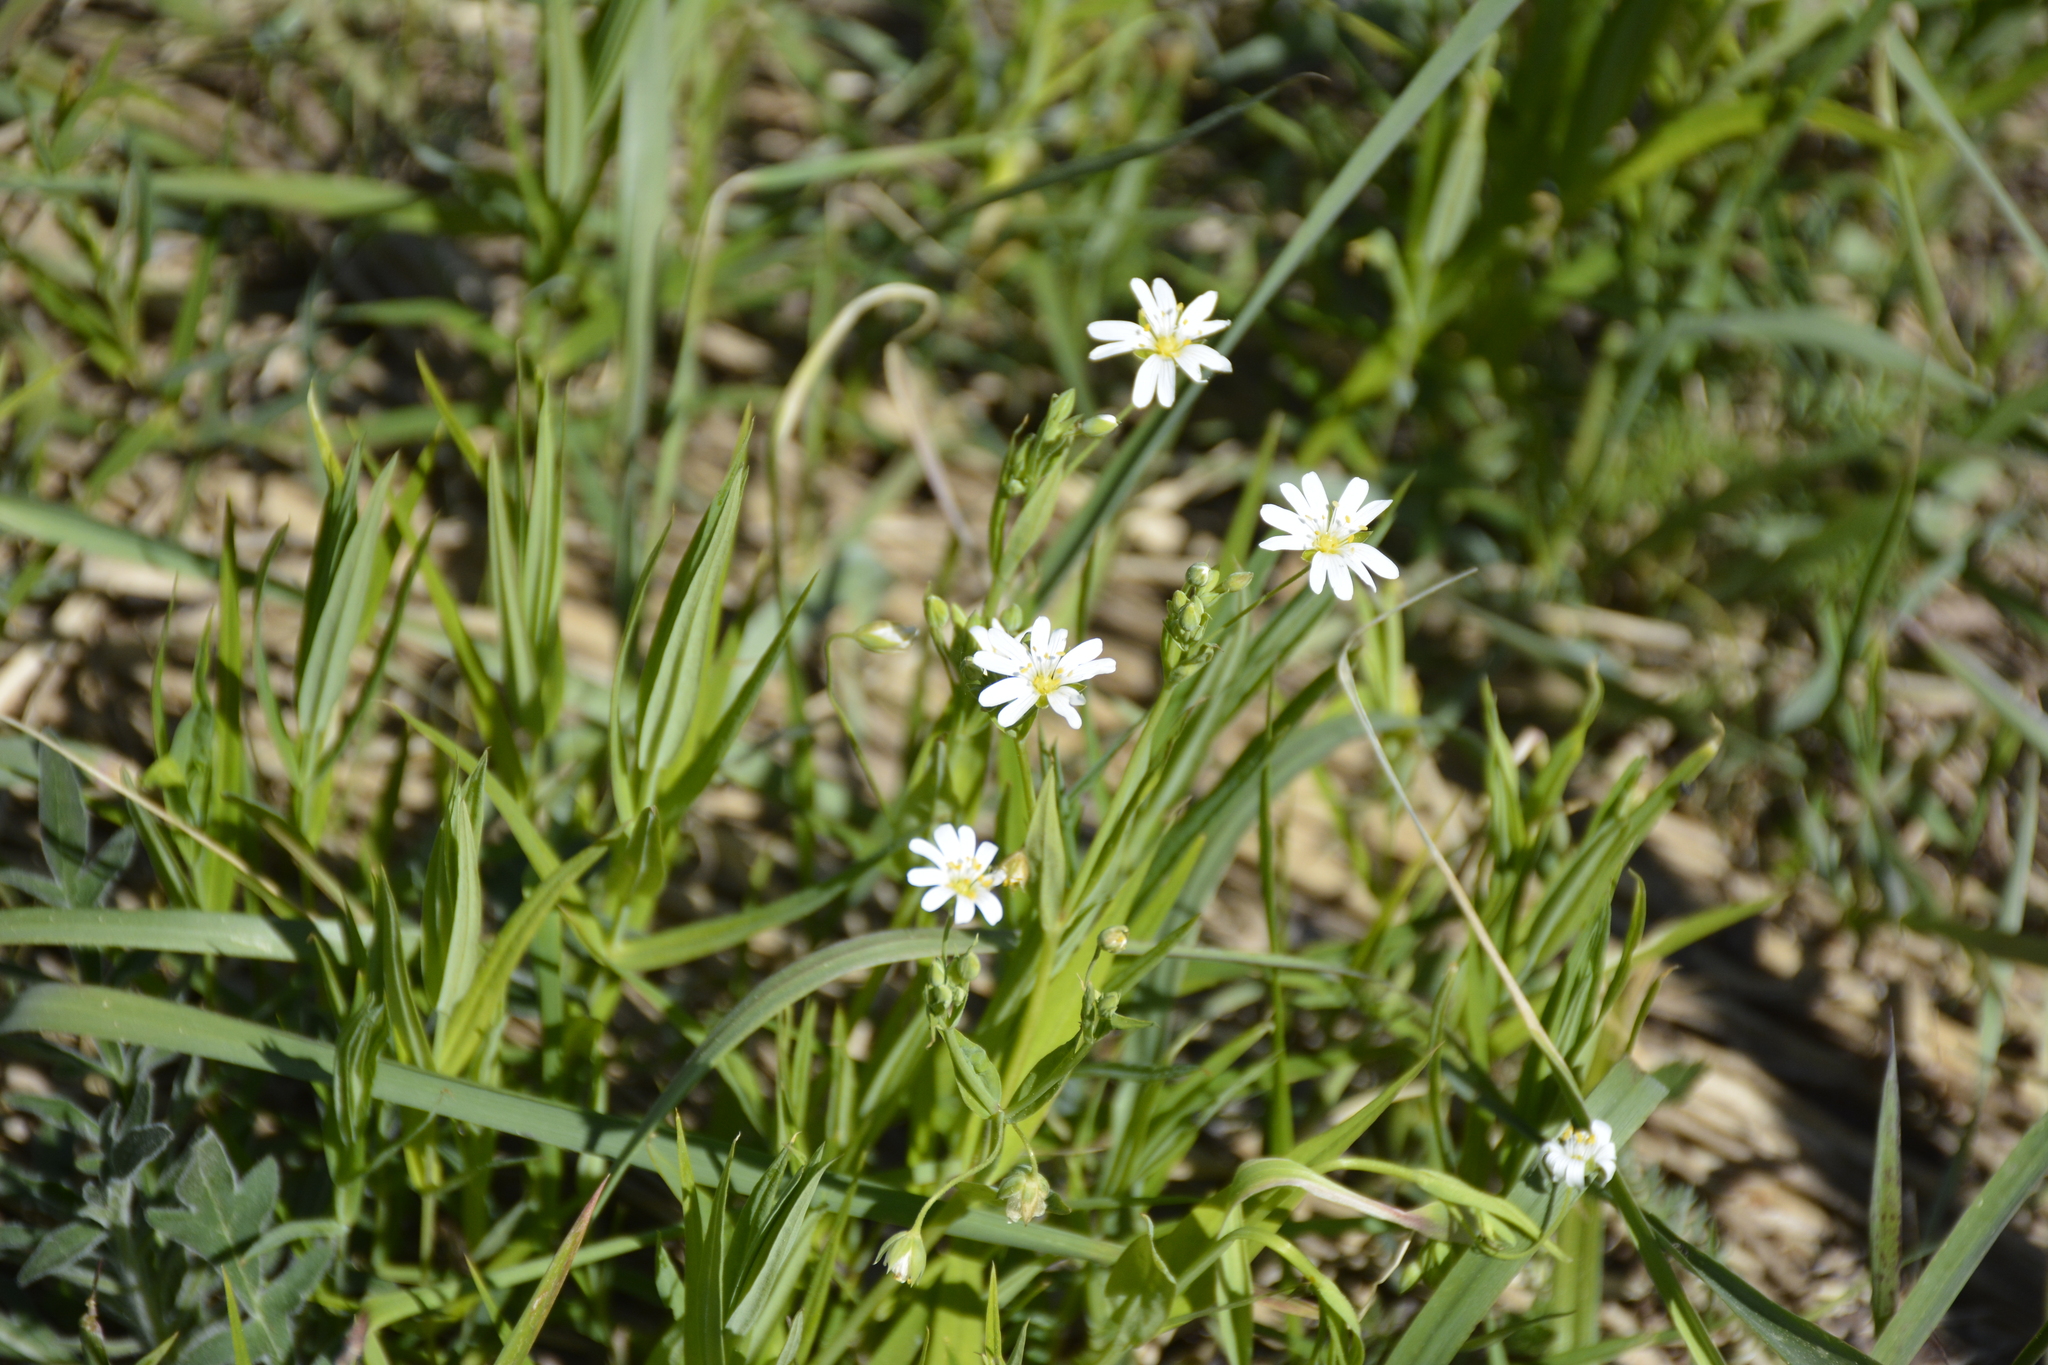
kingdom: Plantae
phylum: Tracheophyta
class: Magnoliopsida
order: Caryophyllales
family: Caryophyllaceae
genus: Rabelera
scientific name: Rabelera holostea
